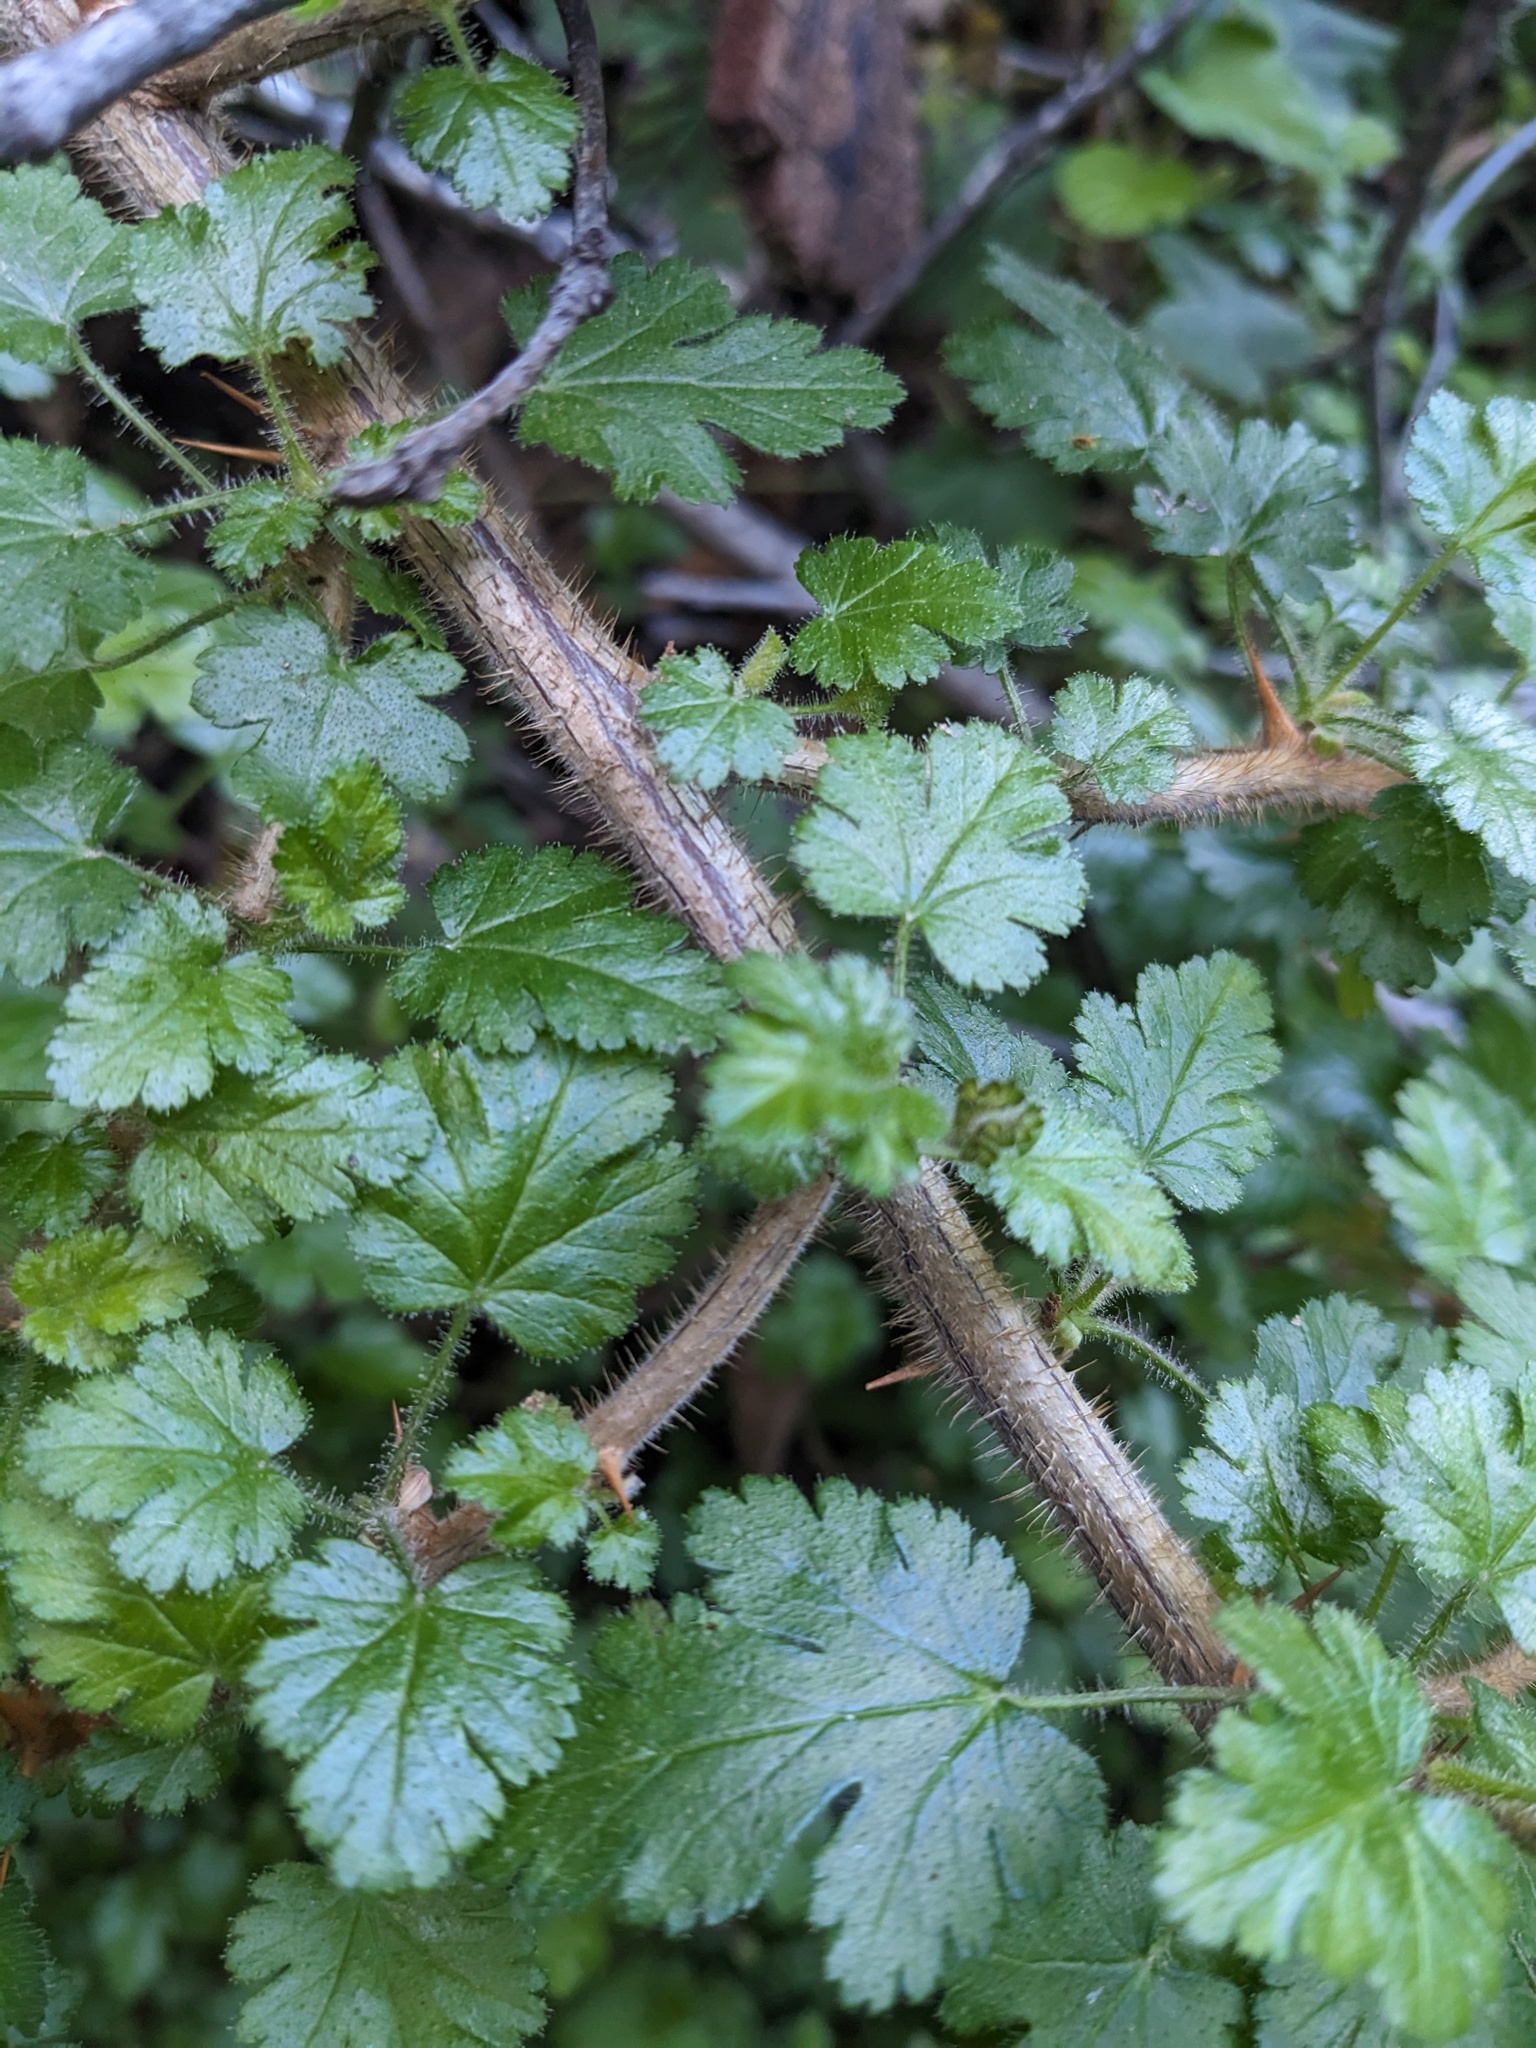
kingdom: Plantae
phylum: Tracheophyta
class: Magnoliopsida
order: Saxifragales
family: Grossulariaceae
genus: Ribes
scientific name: Ribes sericeum
